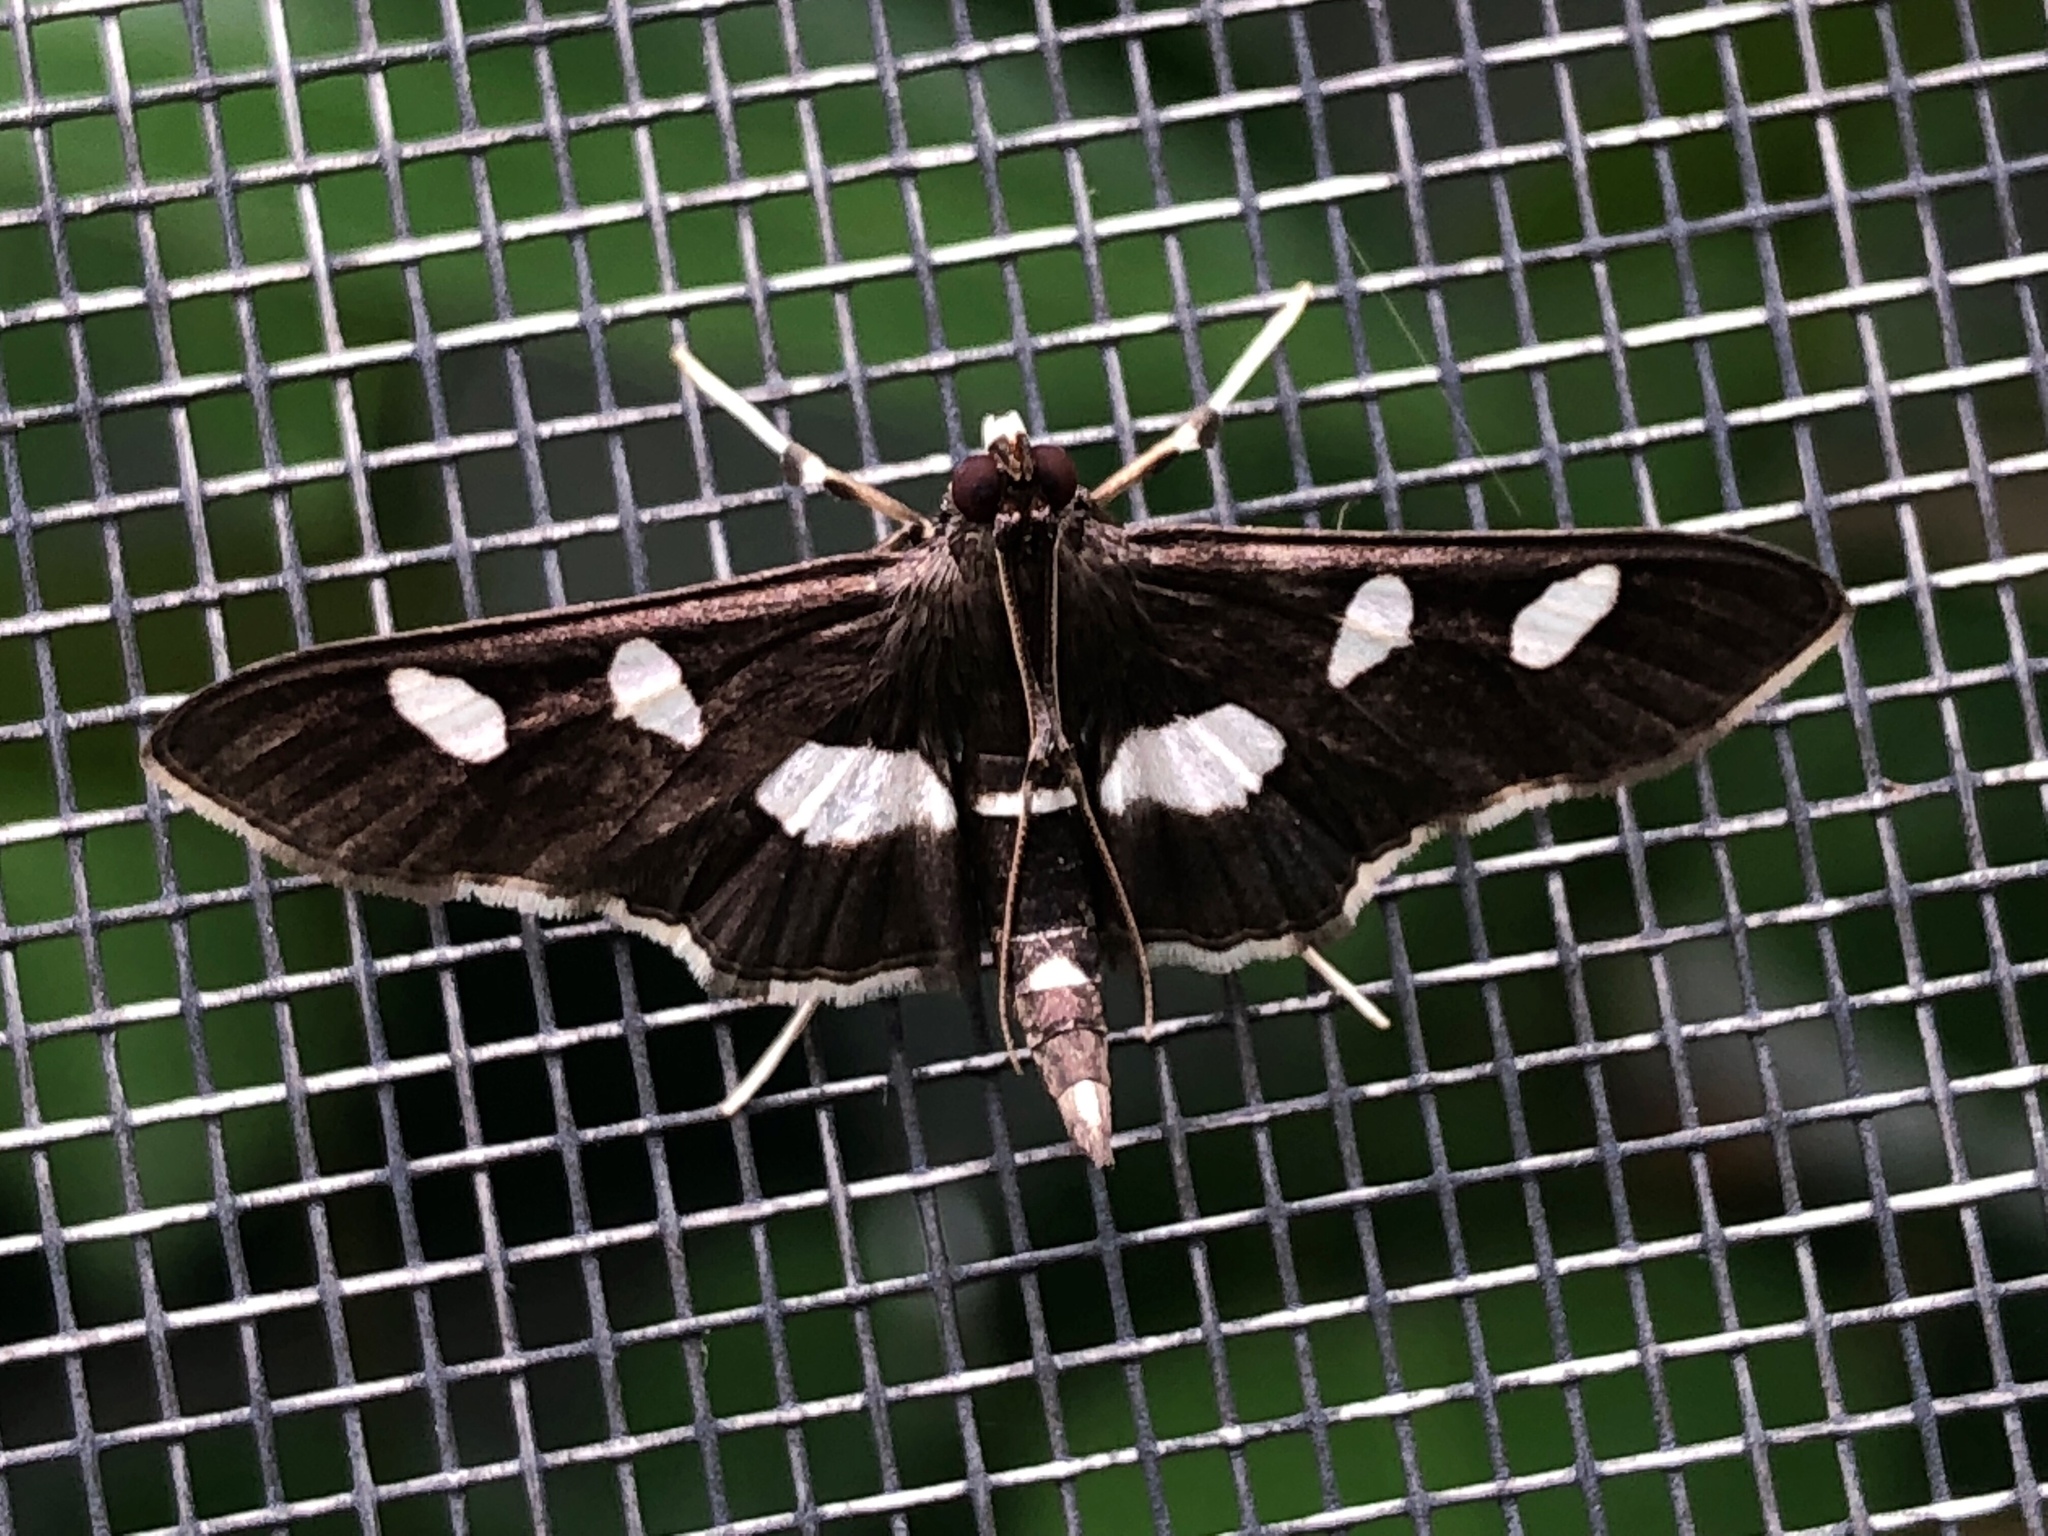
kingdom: Animalia
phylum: Arthropoda
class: Insecta
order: Lepidoptera
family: Crambidae
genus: Desmia
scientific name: Desmia
